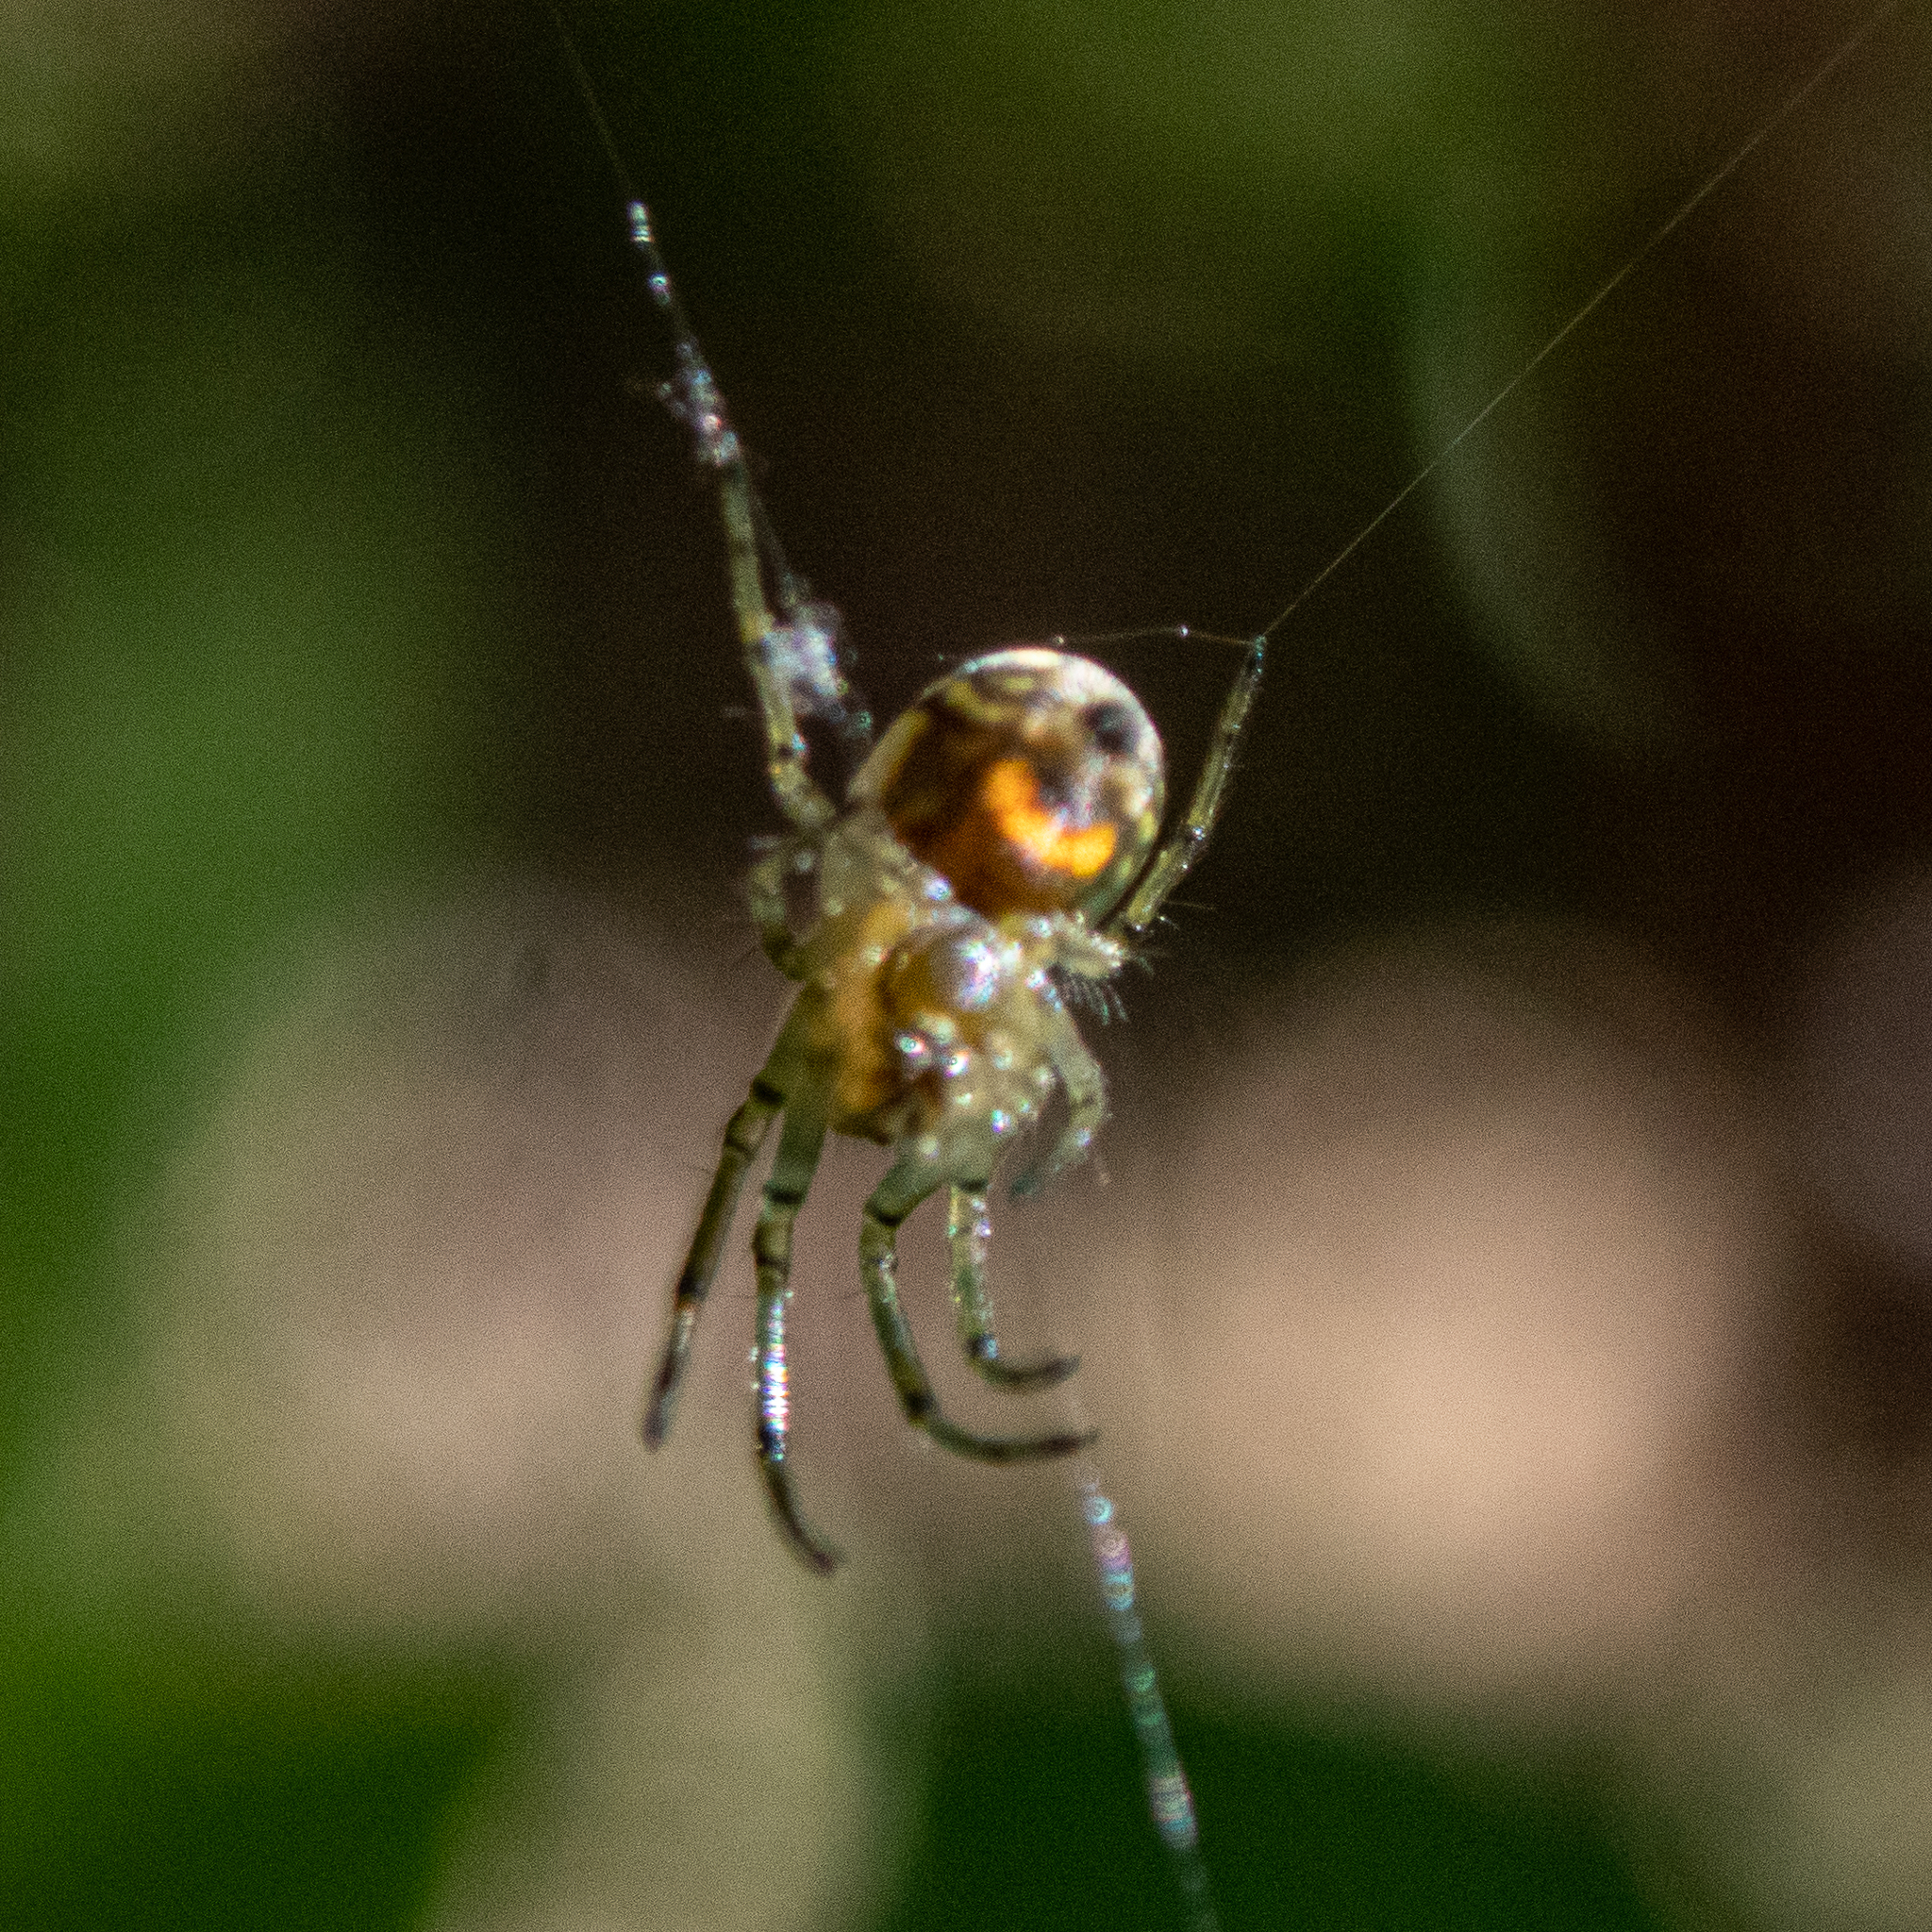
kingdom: Animalia
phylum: Arthropoda
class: Arachnida
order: Araneae
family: Tetragnathidae
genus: Leucauge
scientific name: Leucauge venusta
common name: Longjawed orb weavers
